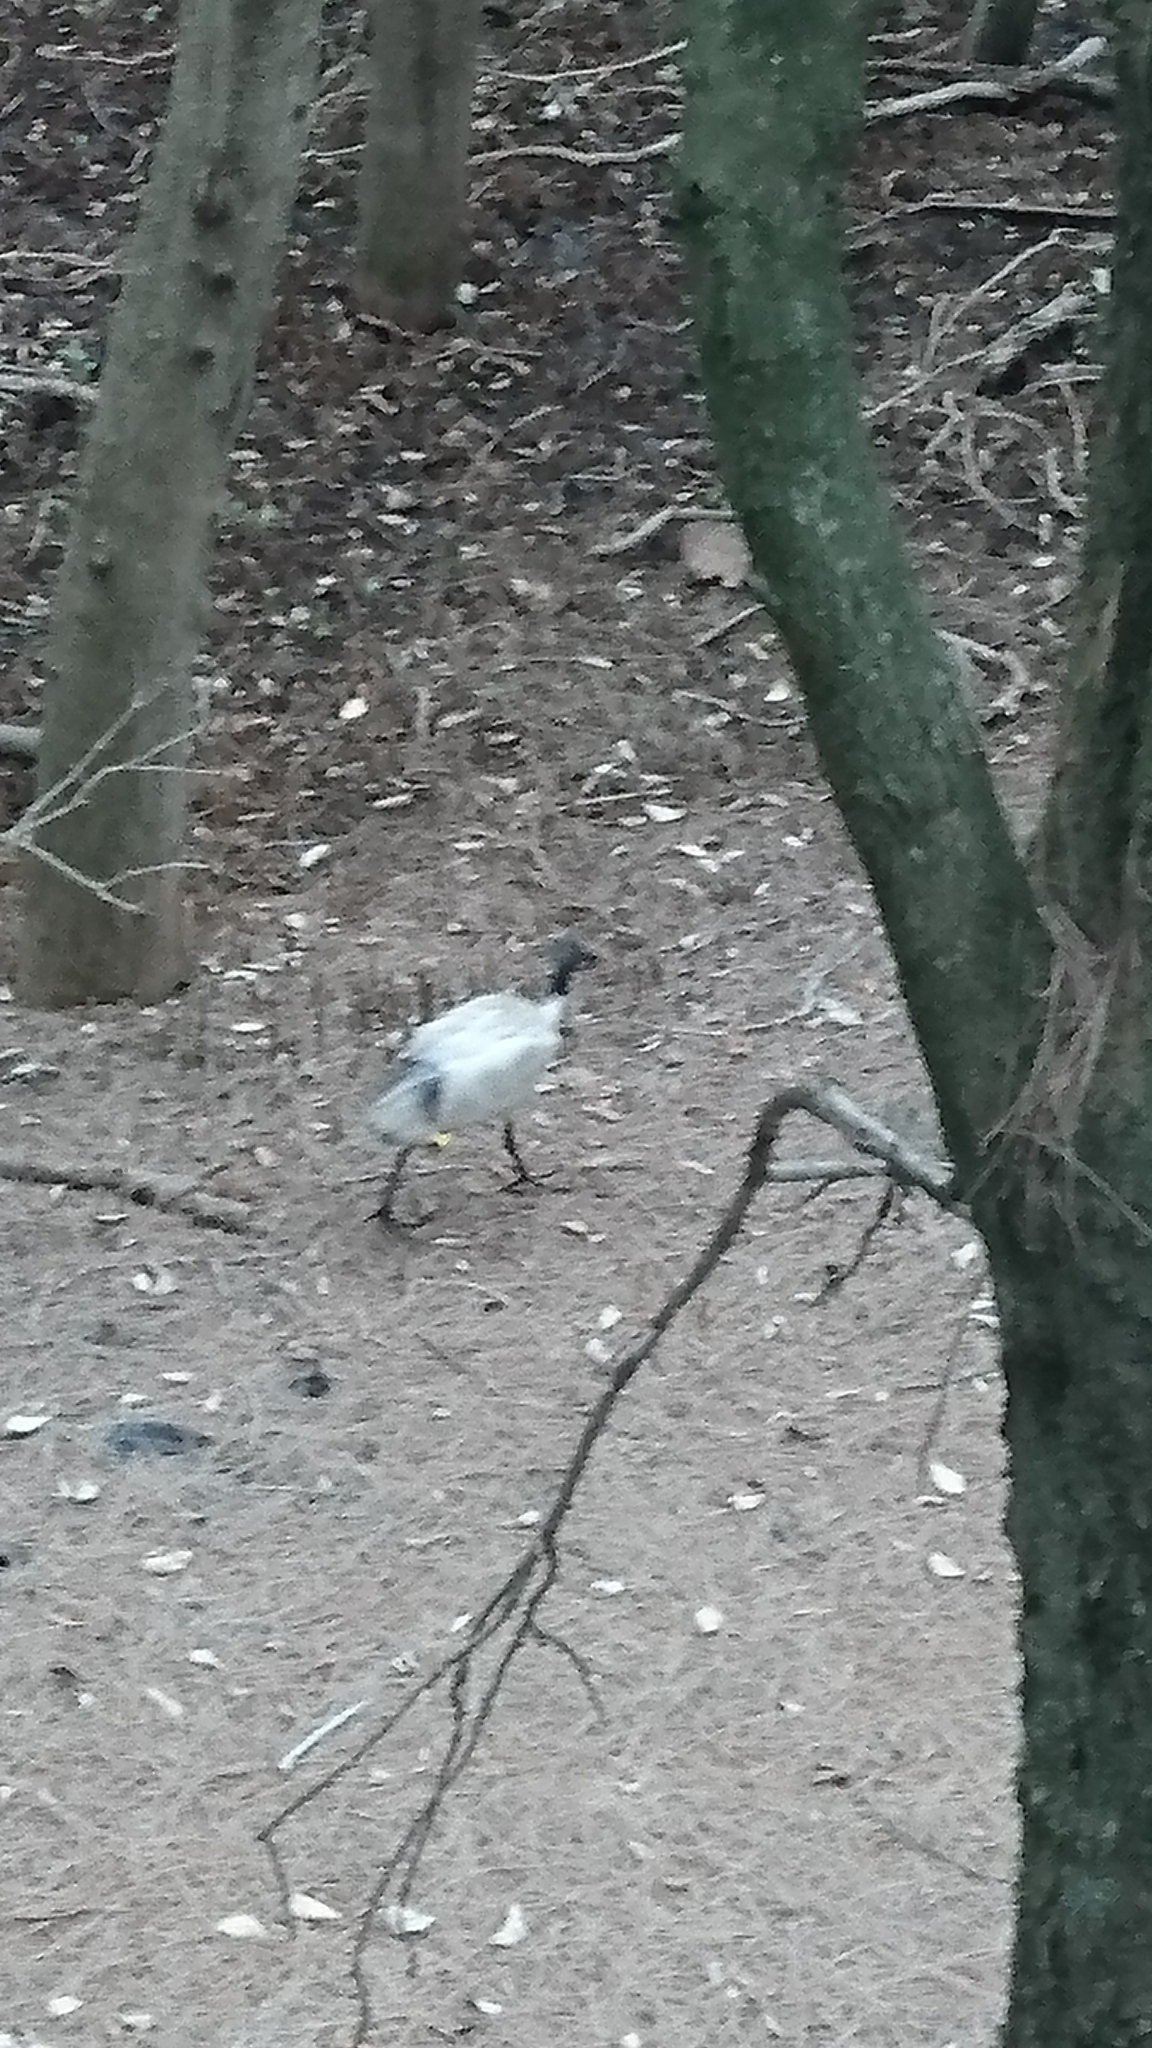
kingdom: Animalia
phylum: Chordata
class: Aves
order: Pelecaniformes
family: Threskiornithidae
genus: Threskiornis
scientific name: Threskiornis molucca
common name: Australian white ibis
